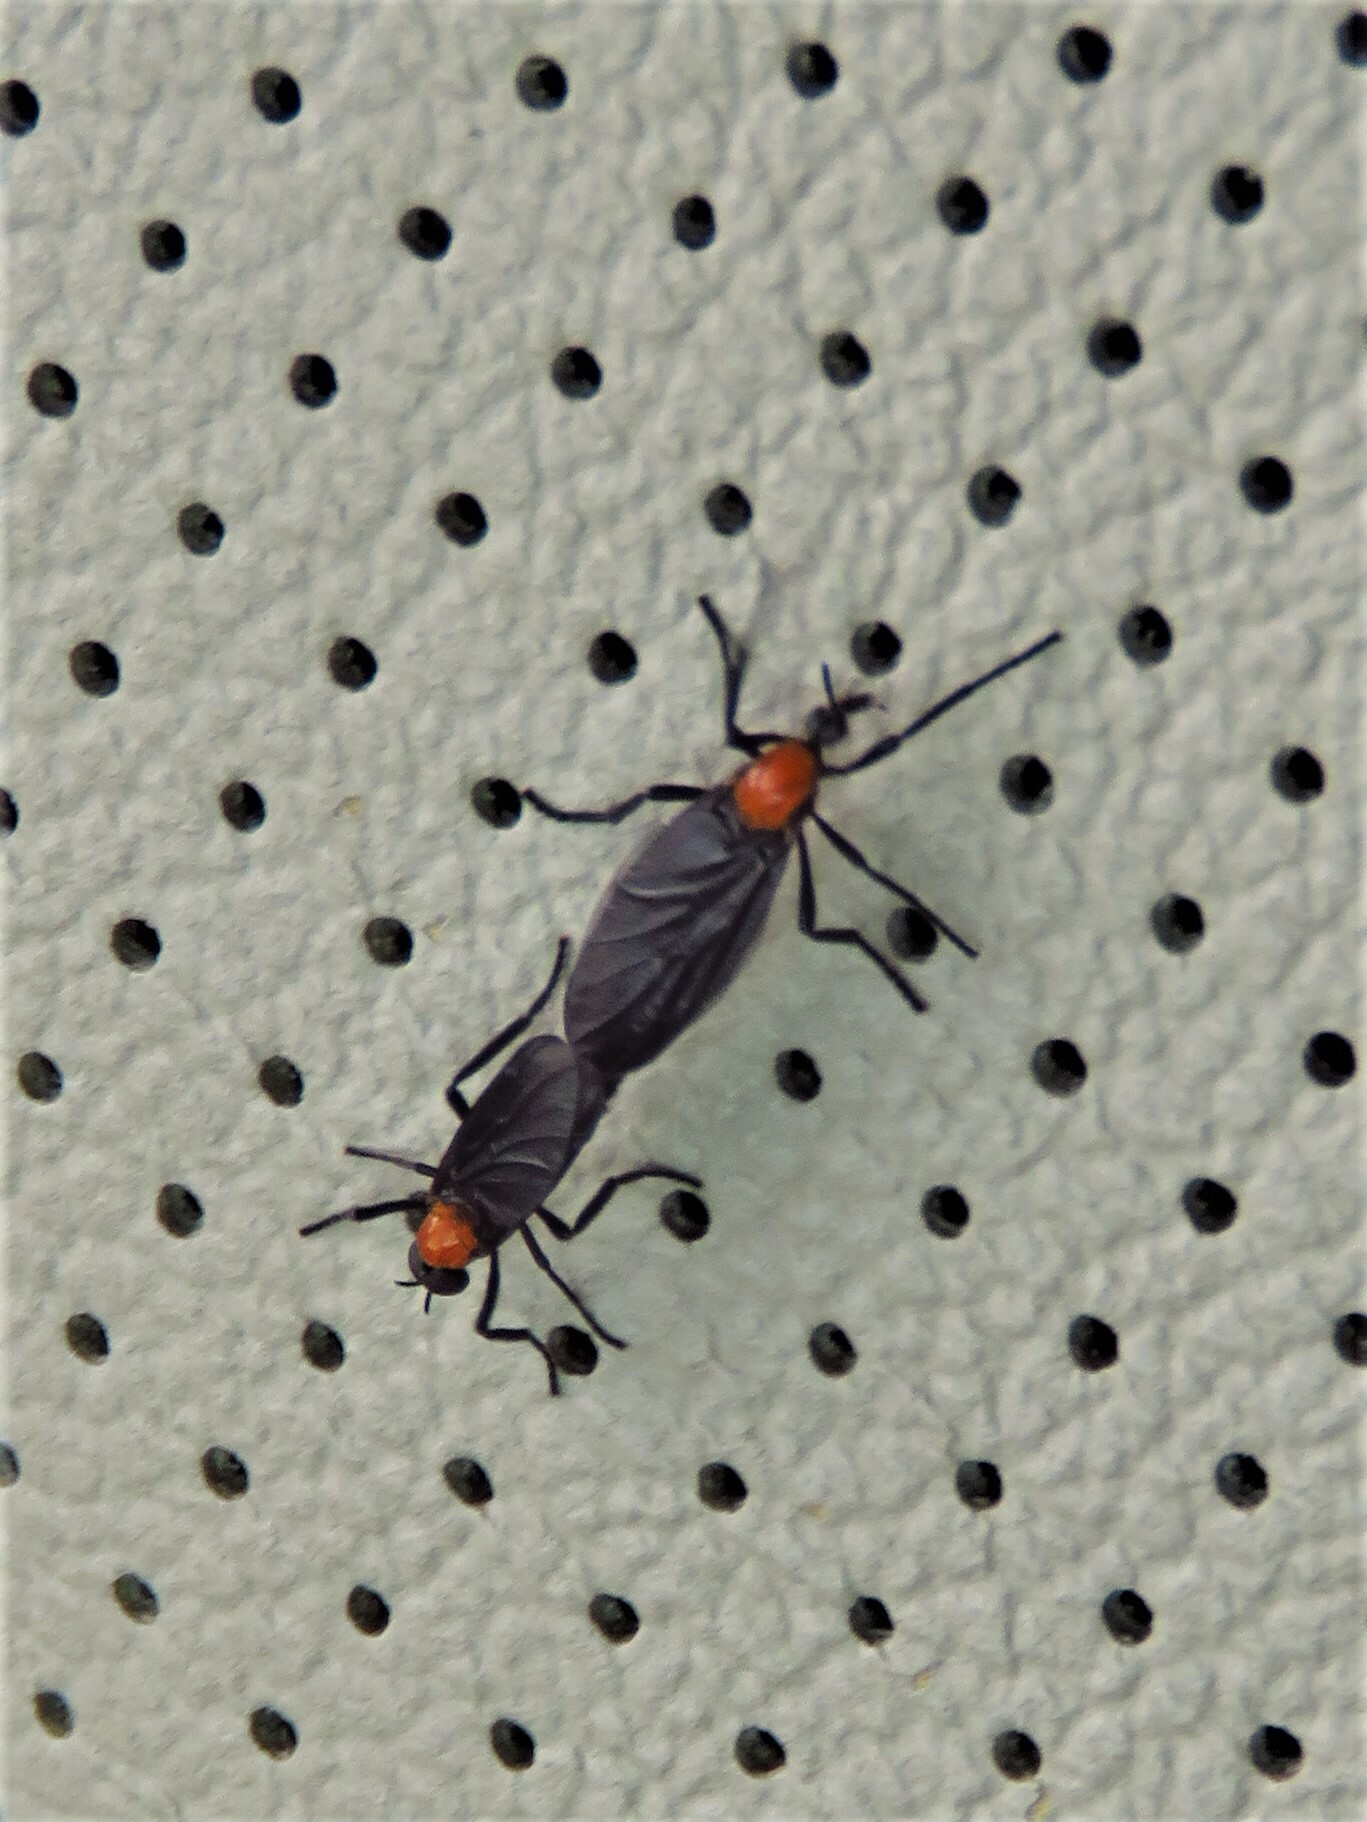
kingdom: Animalia
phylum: Arthropoda
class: Insecta
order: Diptera
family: Bibionidae
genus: Plecia
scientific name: Plecia nearctica
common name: March fly
